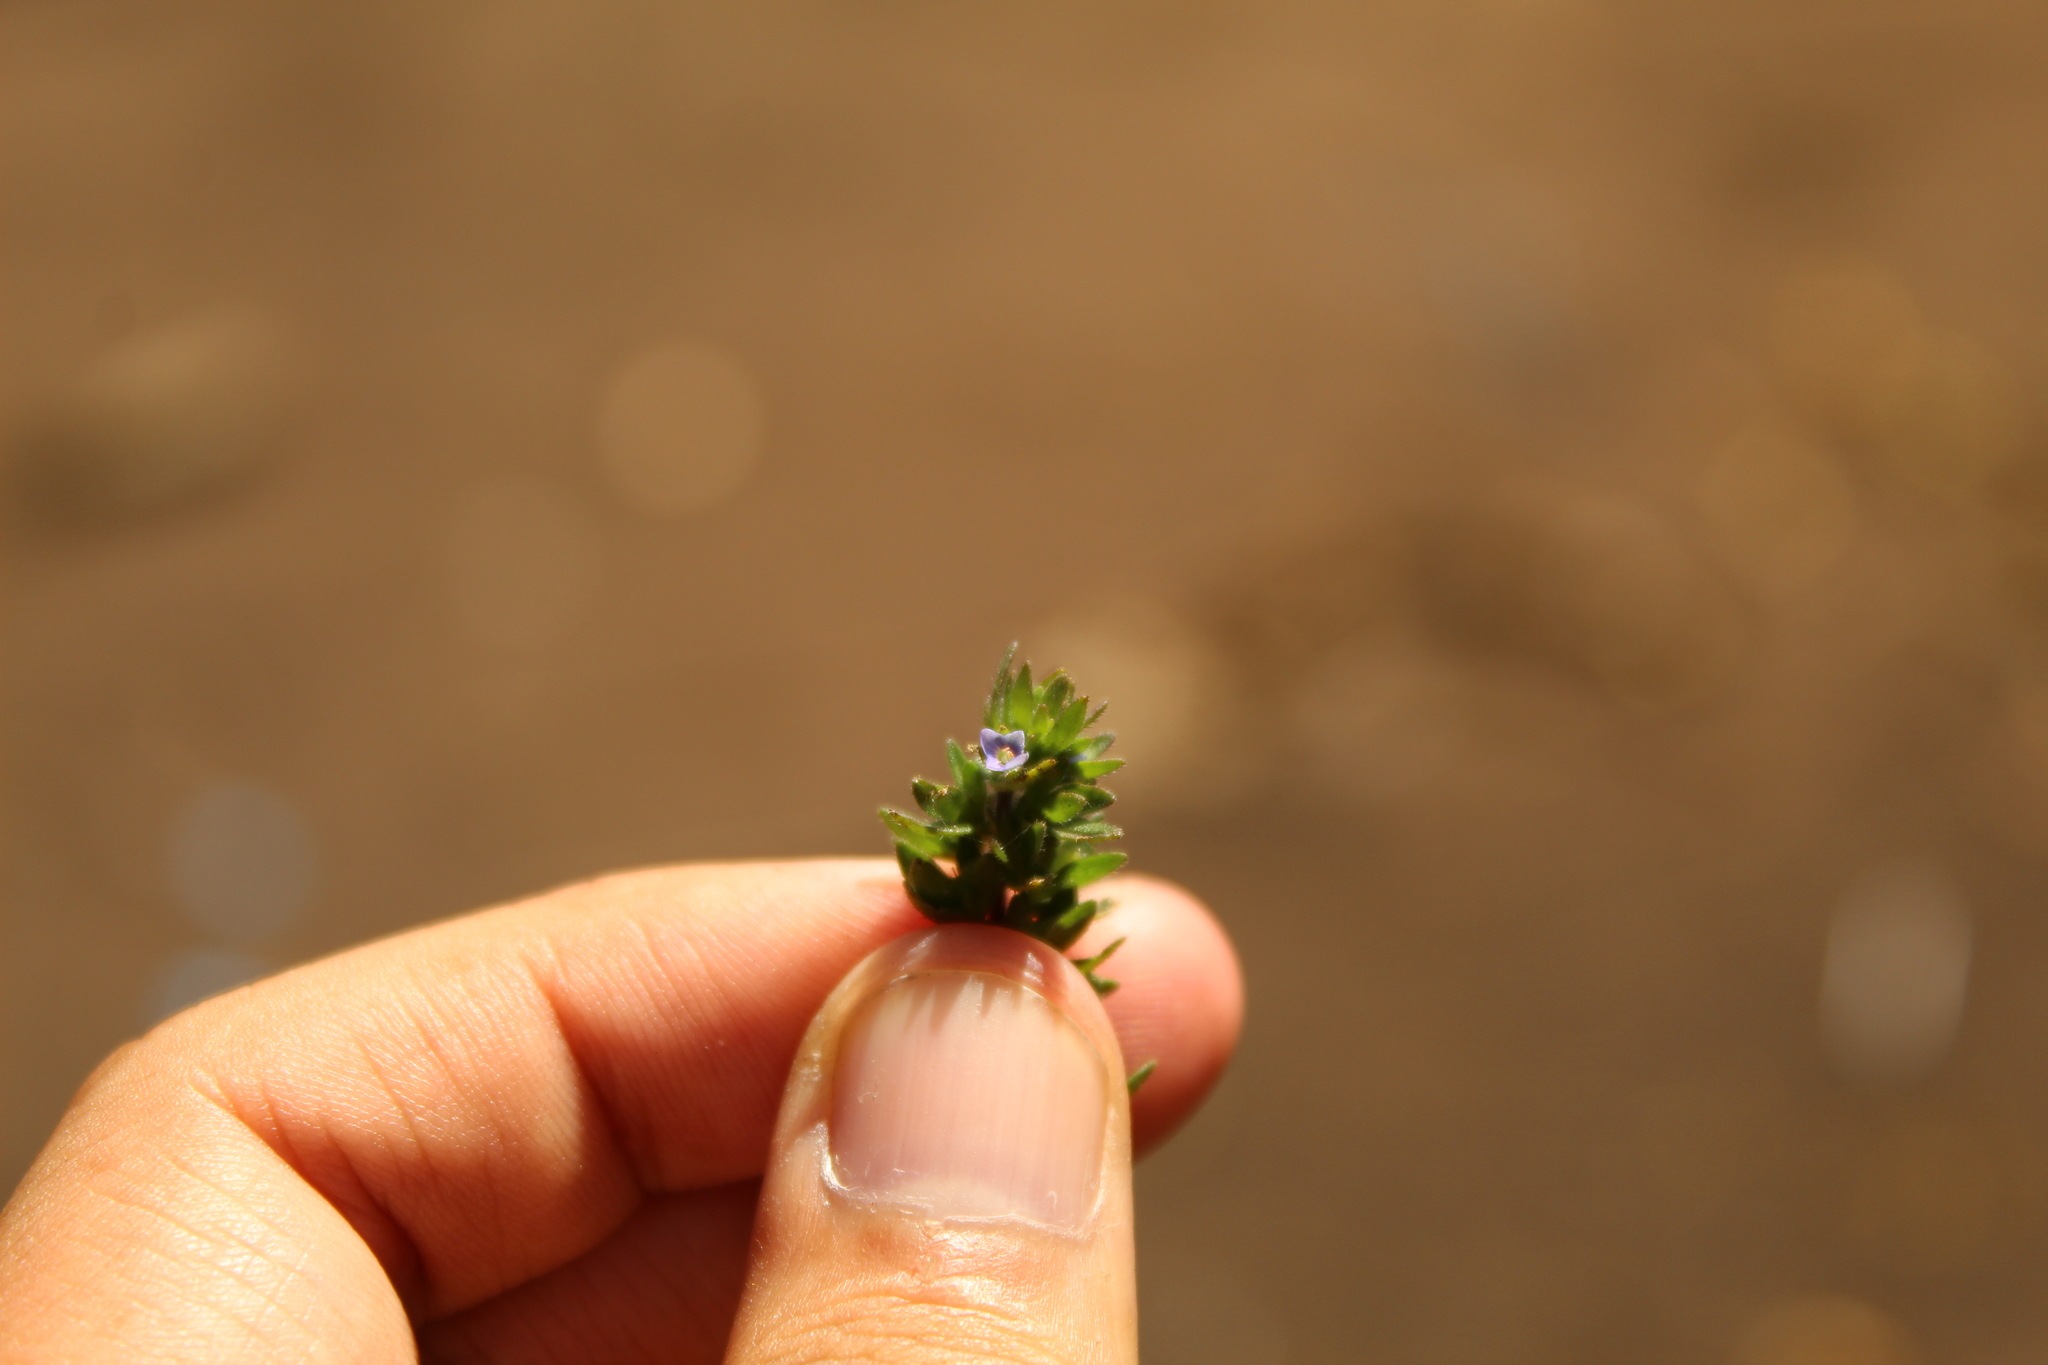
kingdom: Plantae
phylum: Tracheophyta
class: Magnoliopsida
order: Lamiales
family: Plantaginaceae
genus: Veronica
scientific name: Veronica arvensis
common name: Corn speedwell
